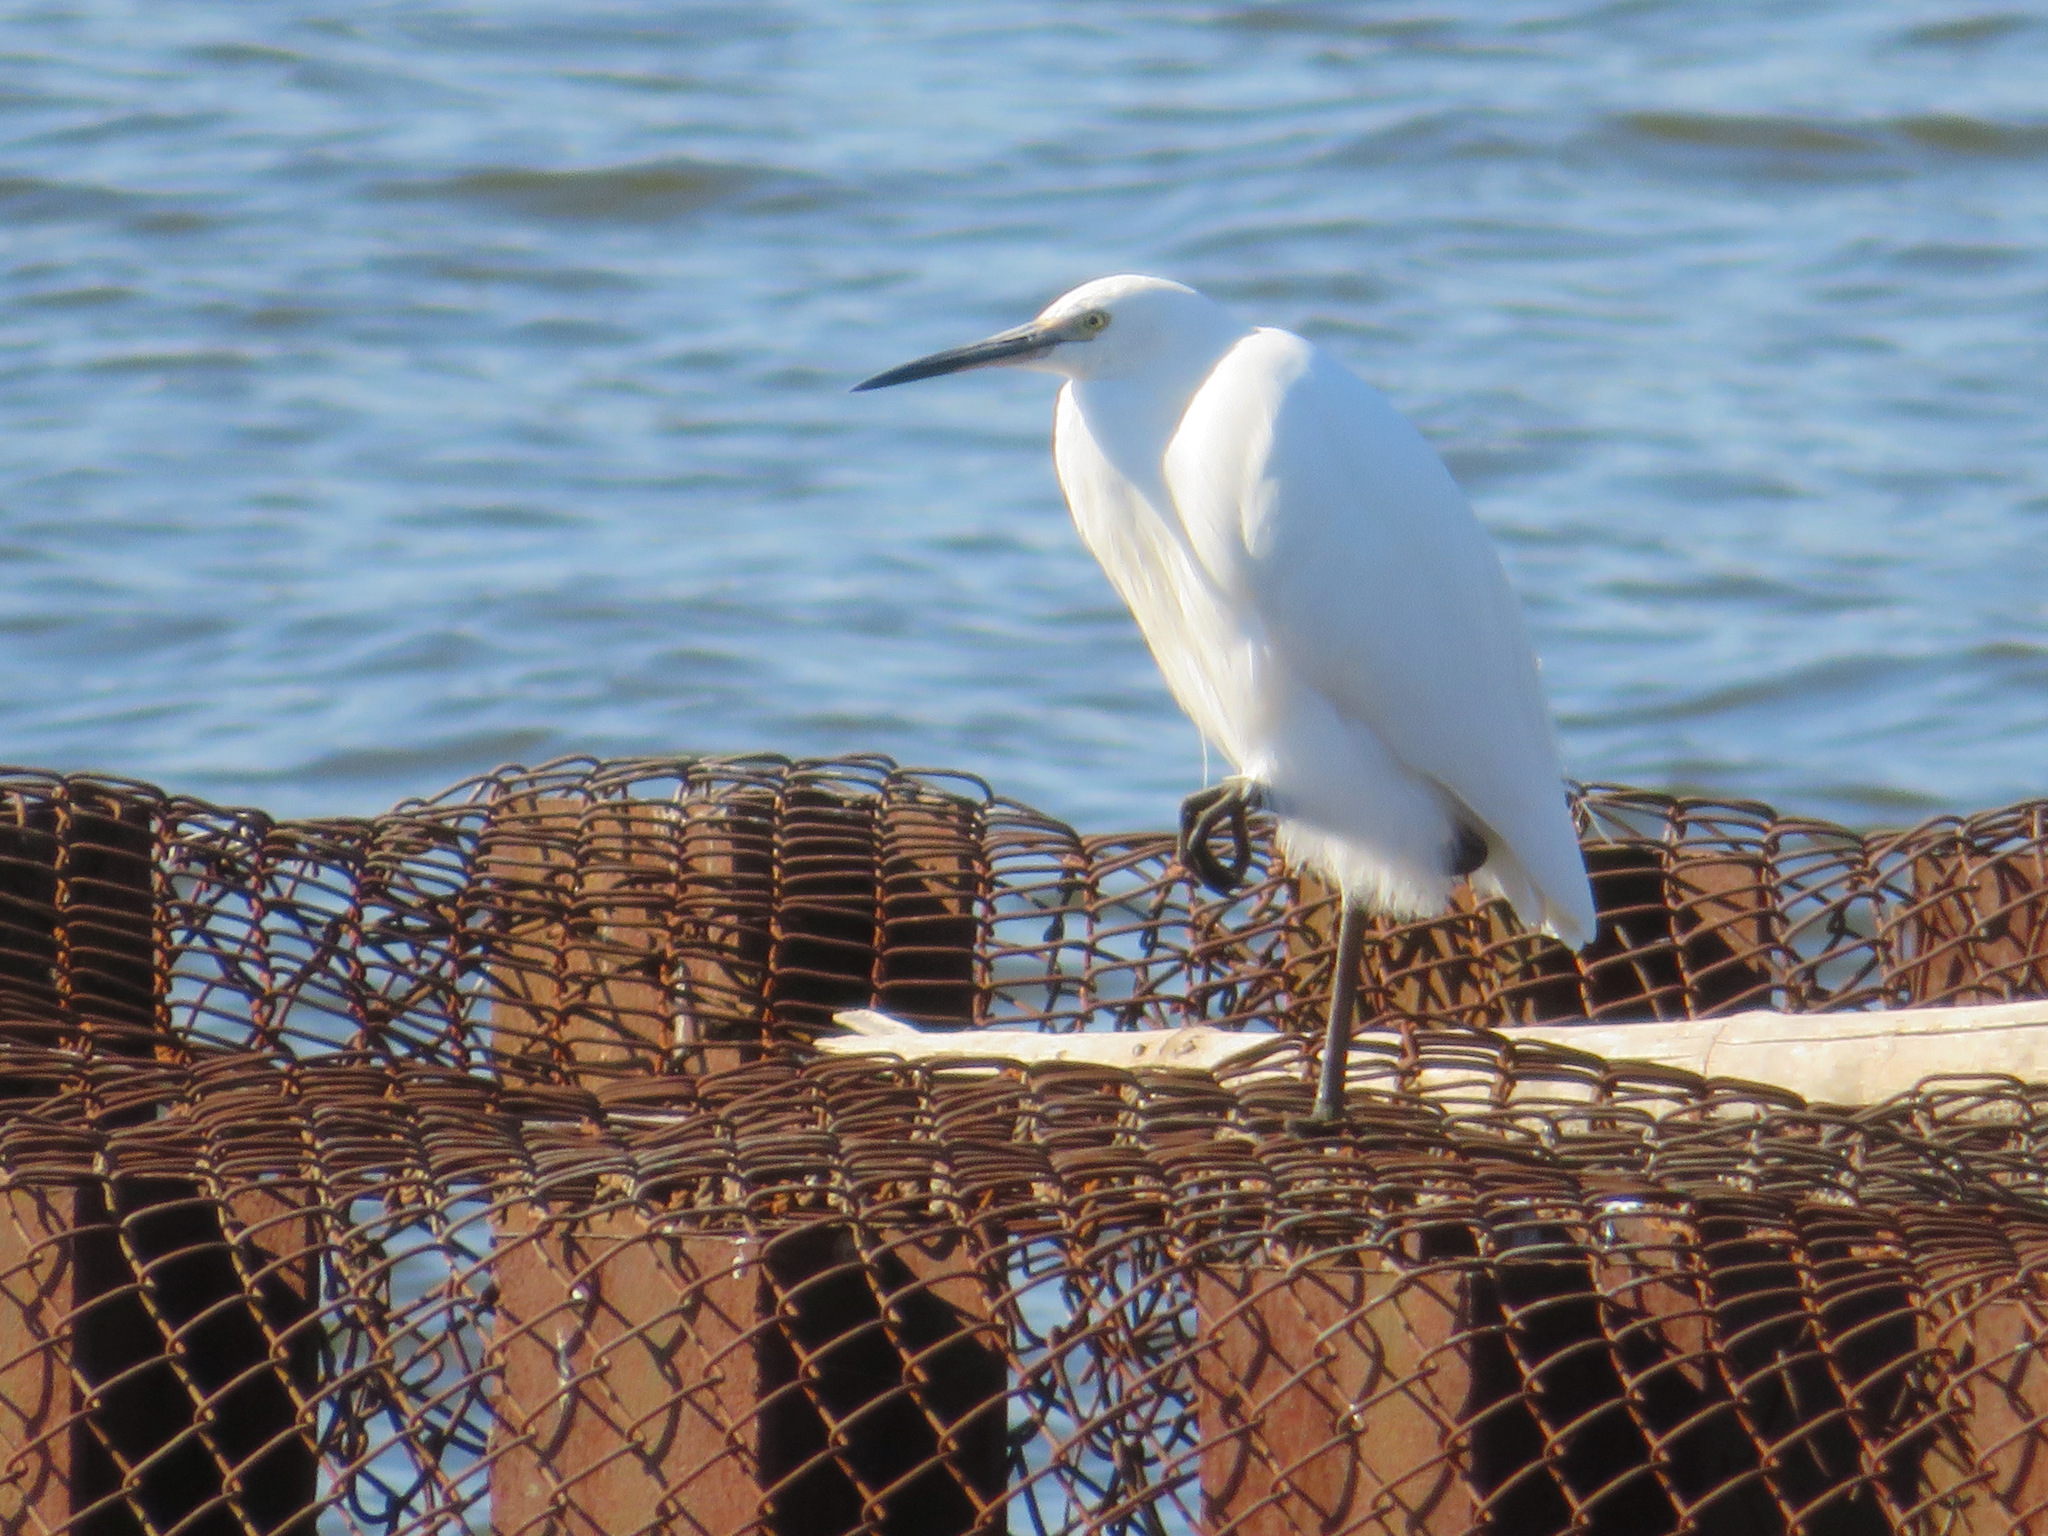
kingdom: Animalia
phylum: Chordata
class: Aves
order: Pelecaniformes
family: Ardeidae
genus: Egretta
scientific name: Egretta garzetta
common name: Little egret
